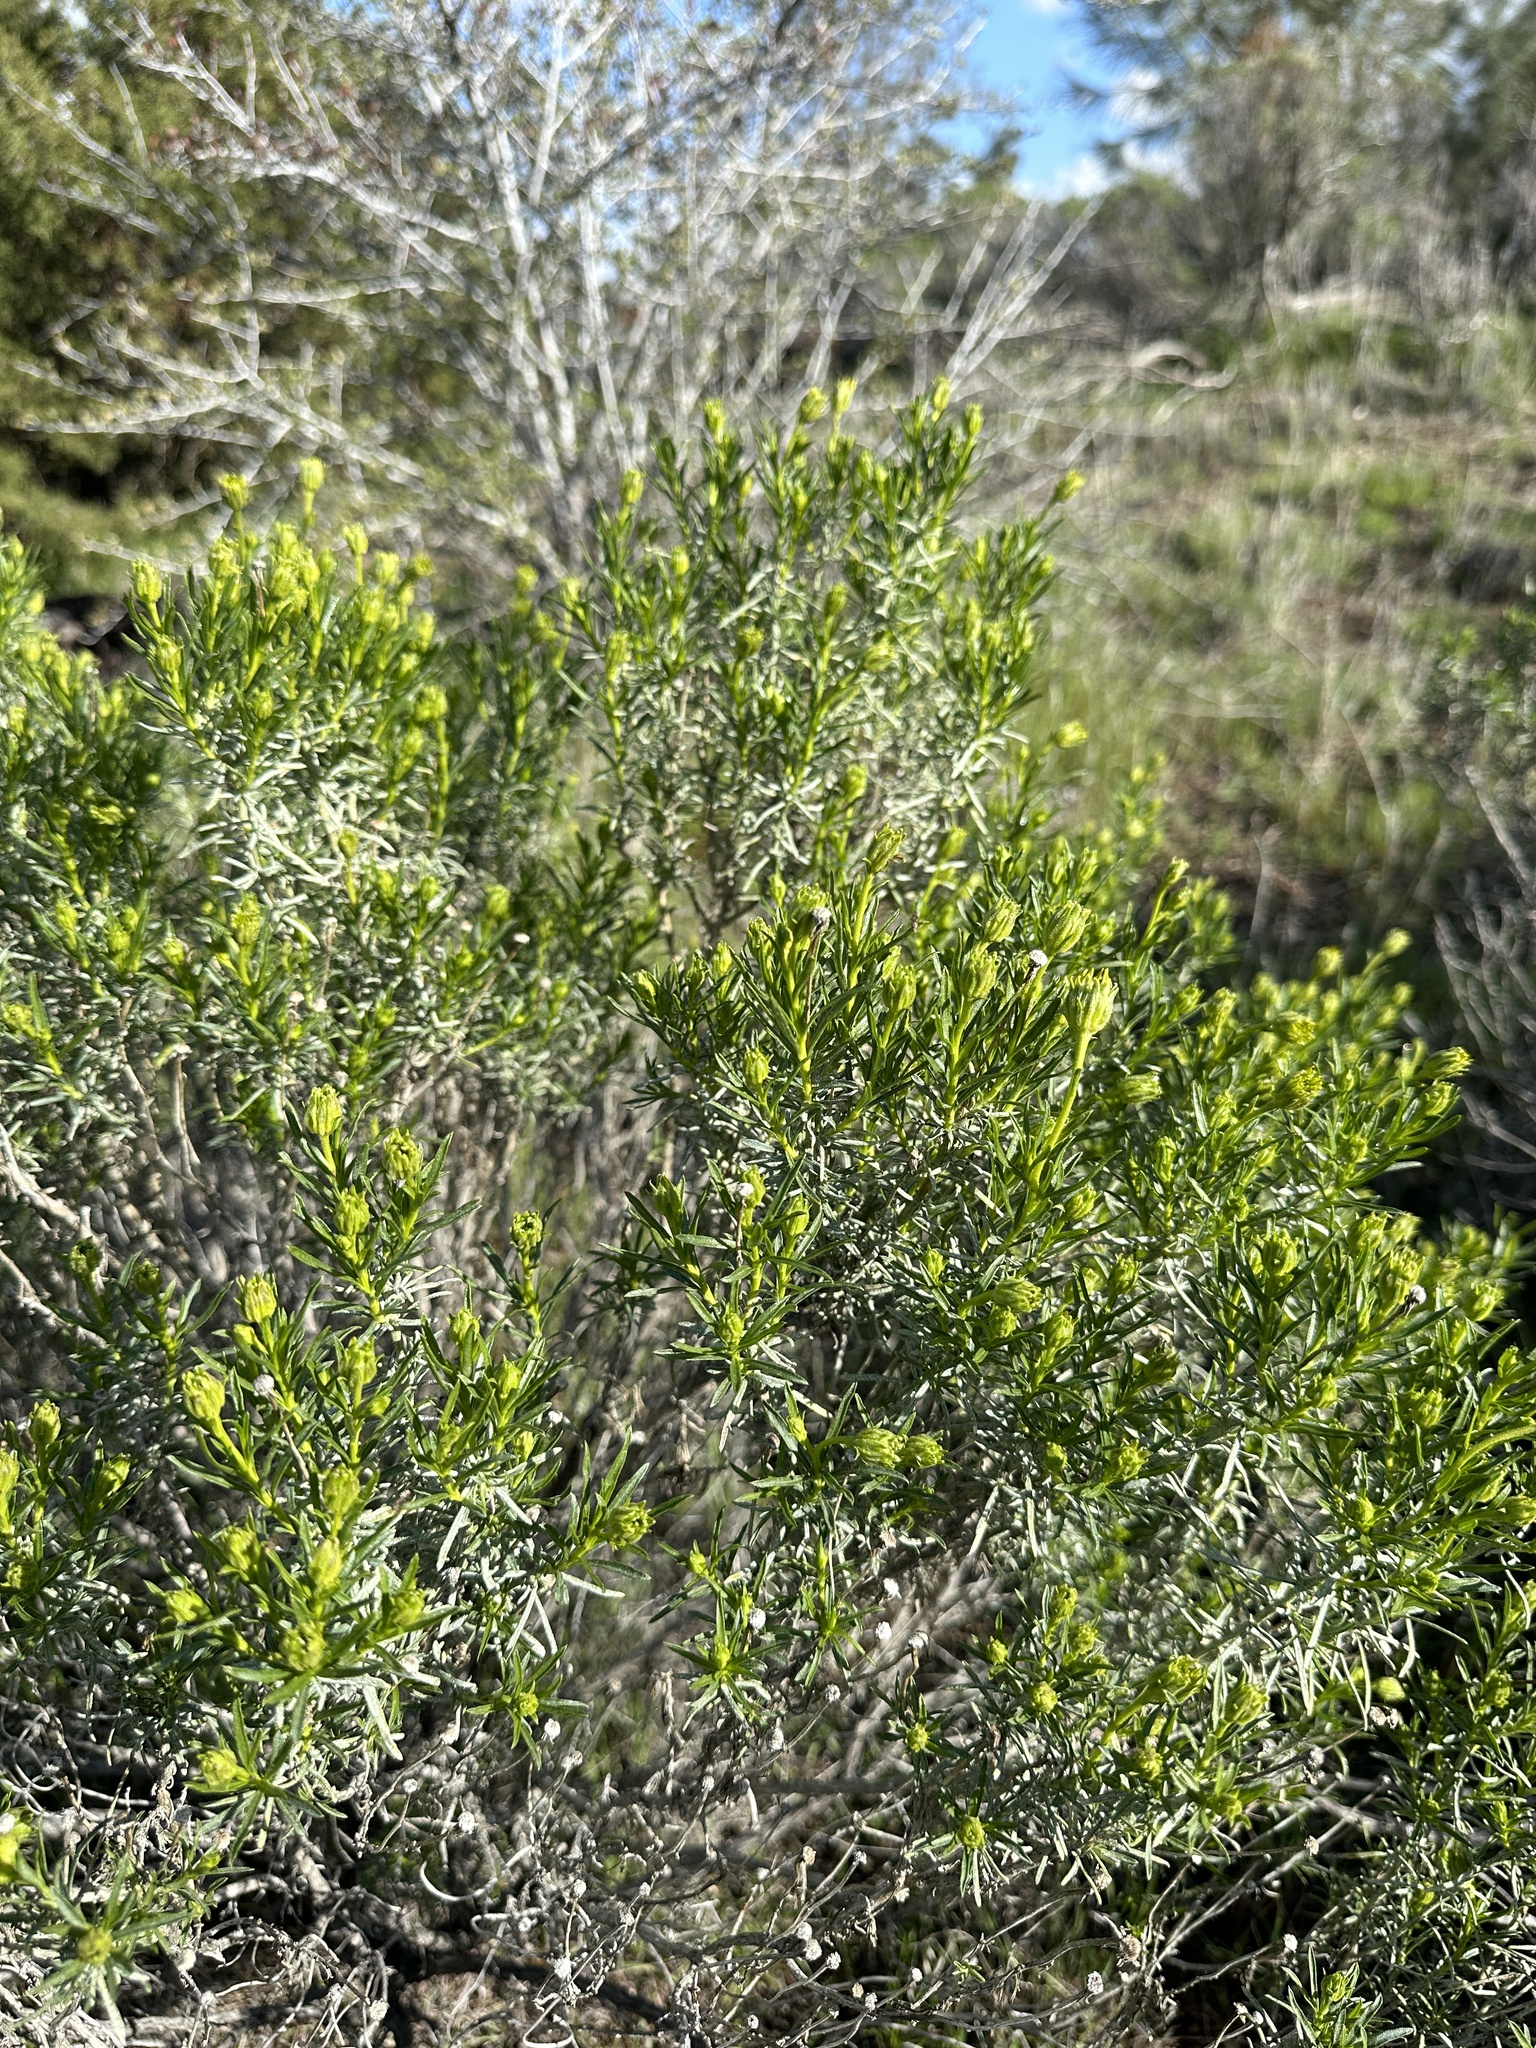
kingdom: Plantae
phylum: Tracheophyta
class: Magnoliopsida
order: Asterales
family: Asteraceae
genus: Ericameria
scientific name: Ericameria linearifolia
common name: Interior goldenbush
